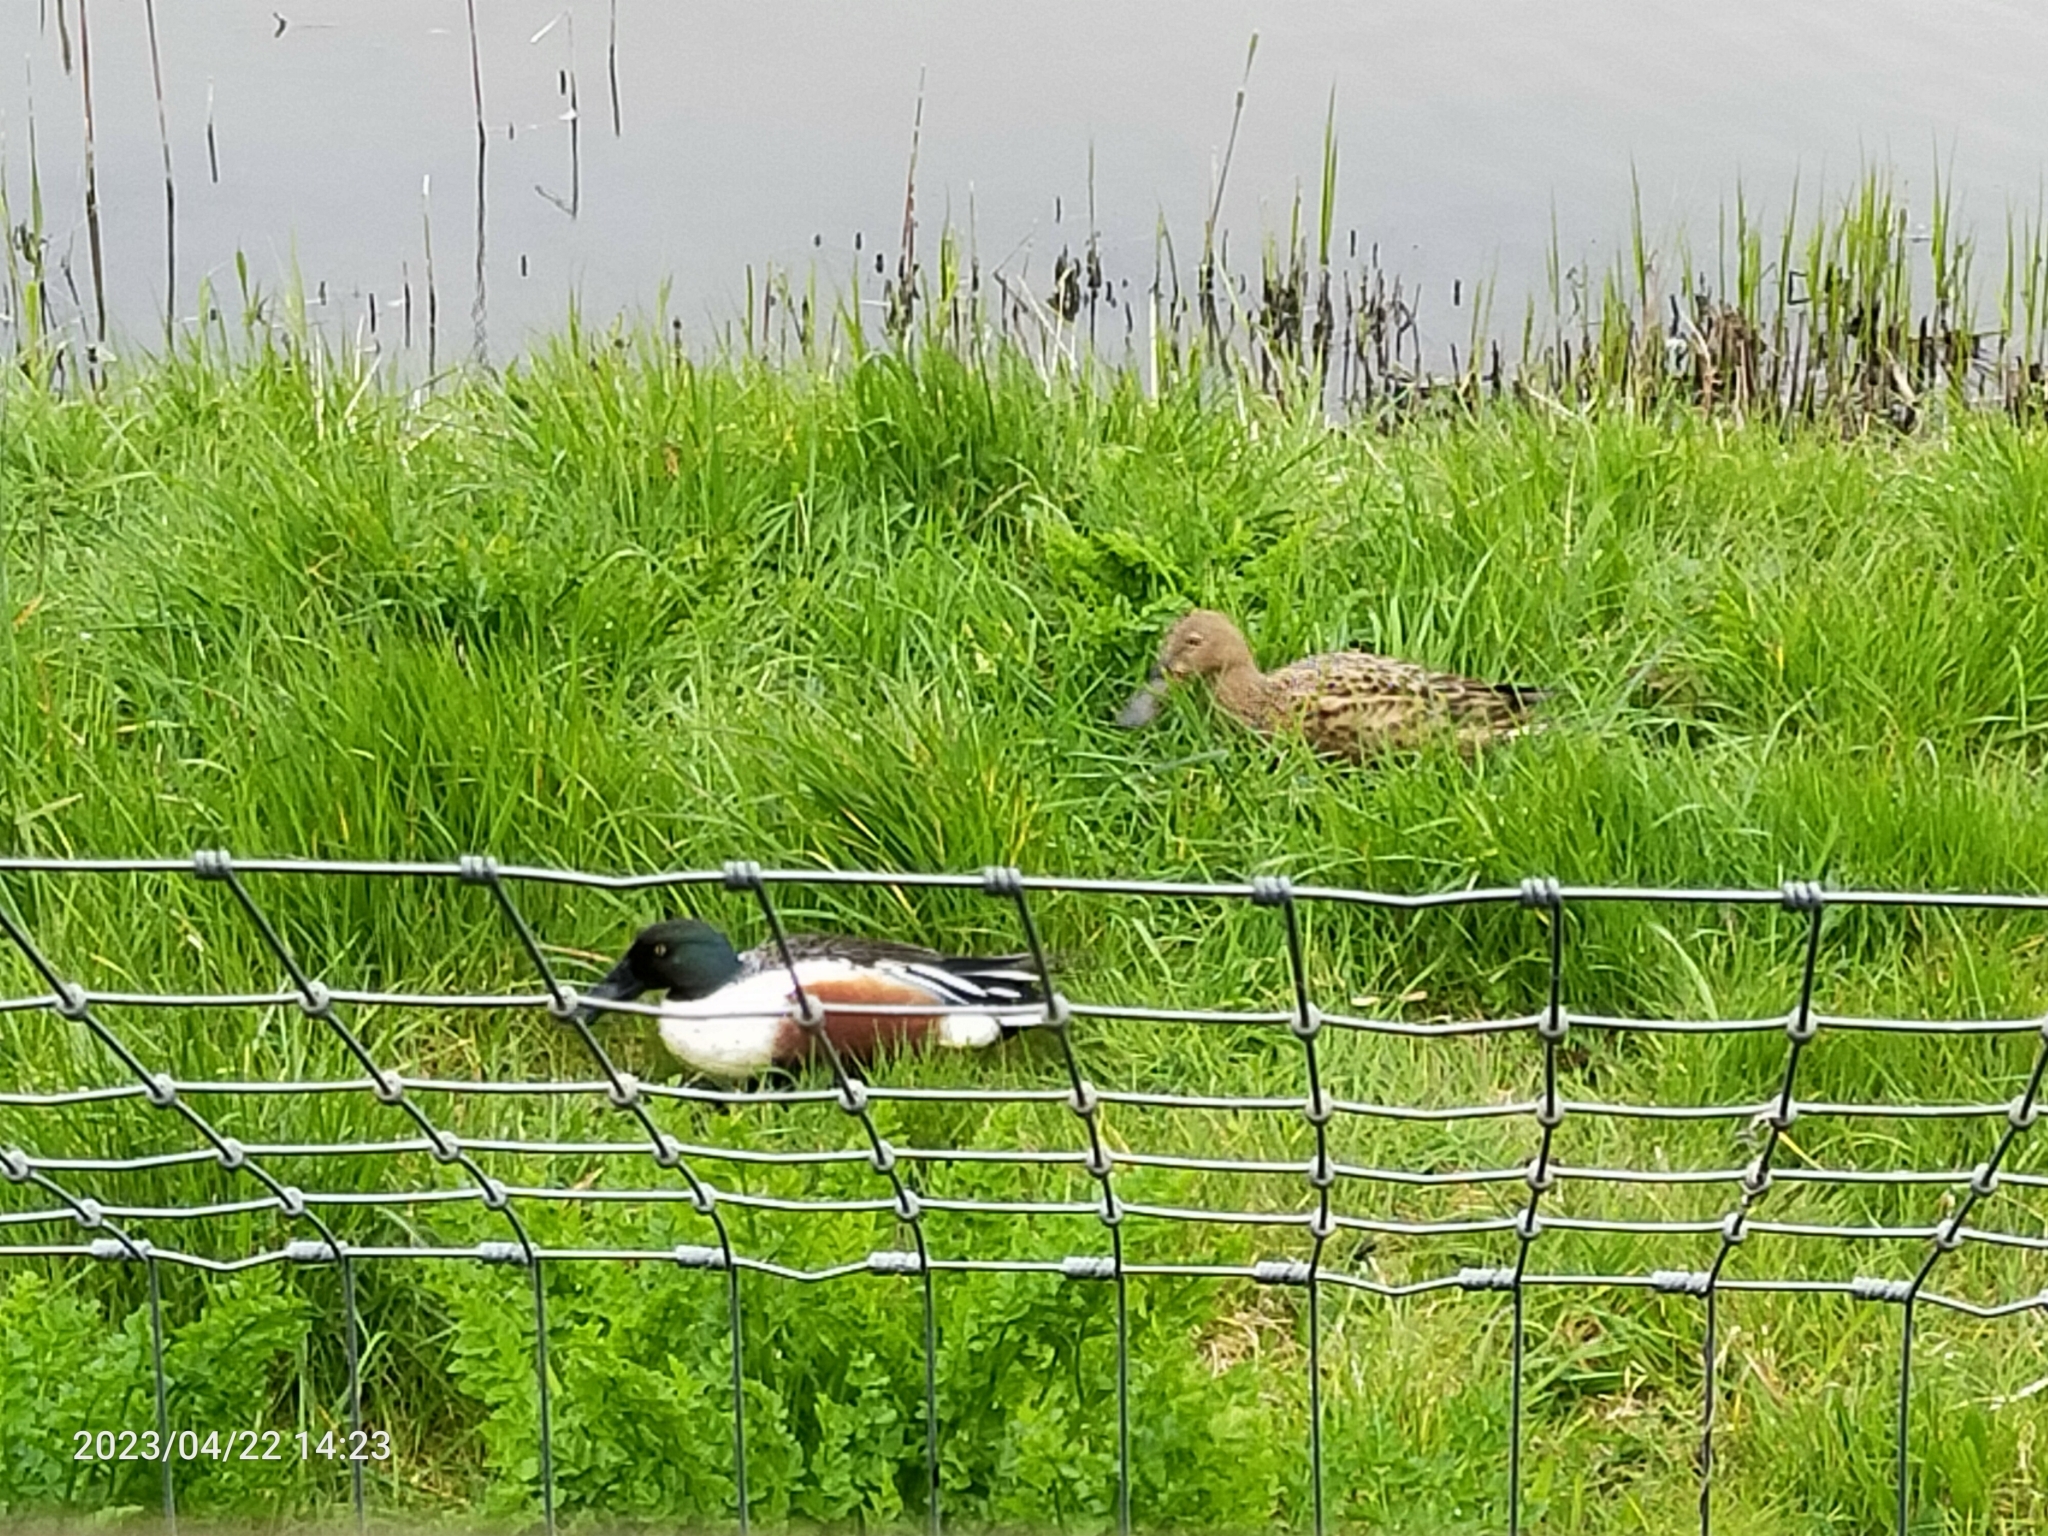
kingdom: Animalia
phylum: Chordata
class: Aves
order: Anseriformes
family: Anatidae
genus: Spatula
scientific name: Spatula clypeata
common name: Northern shoveler
